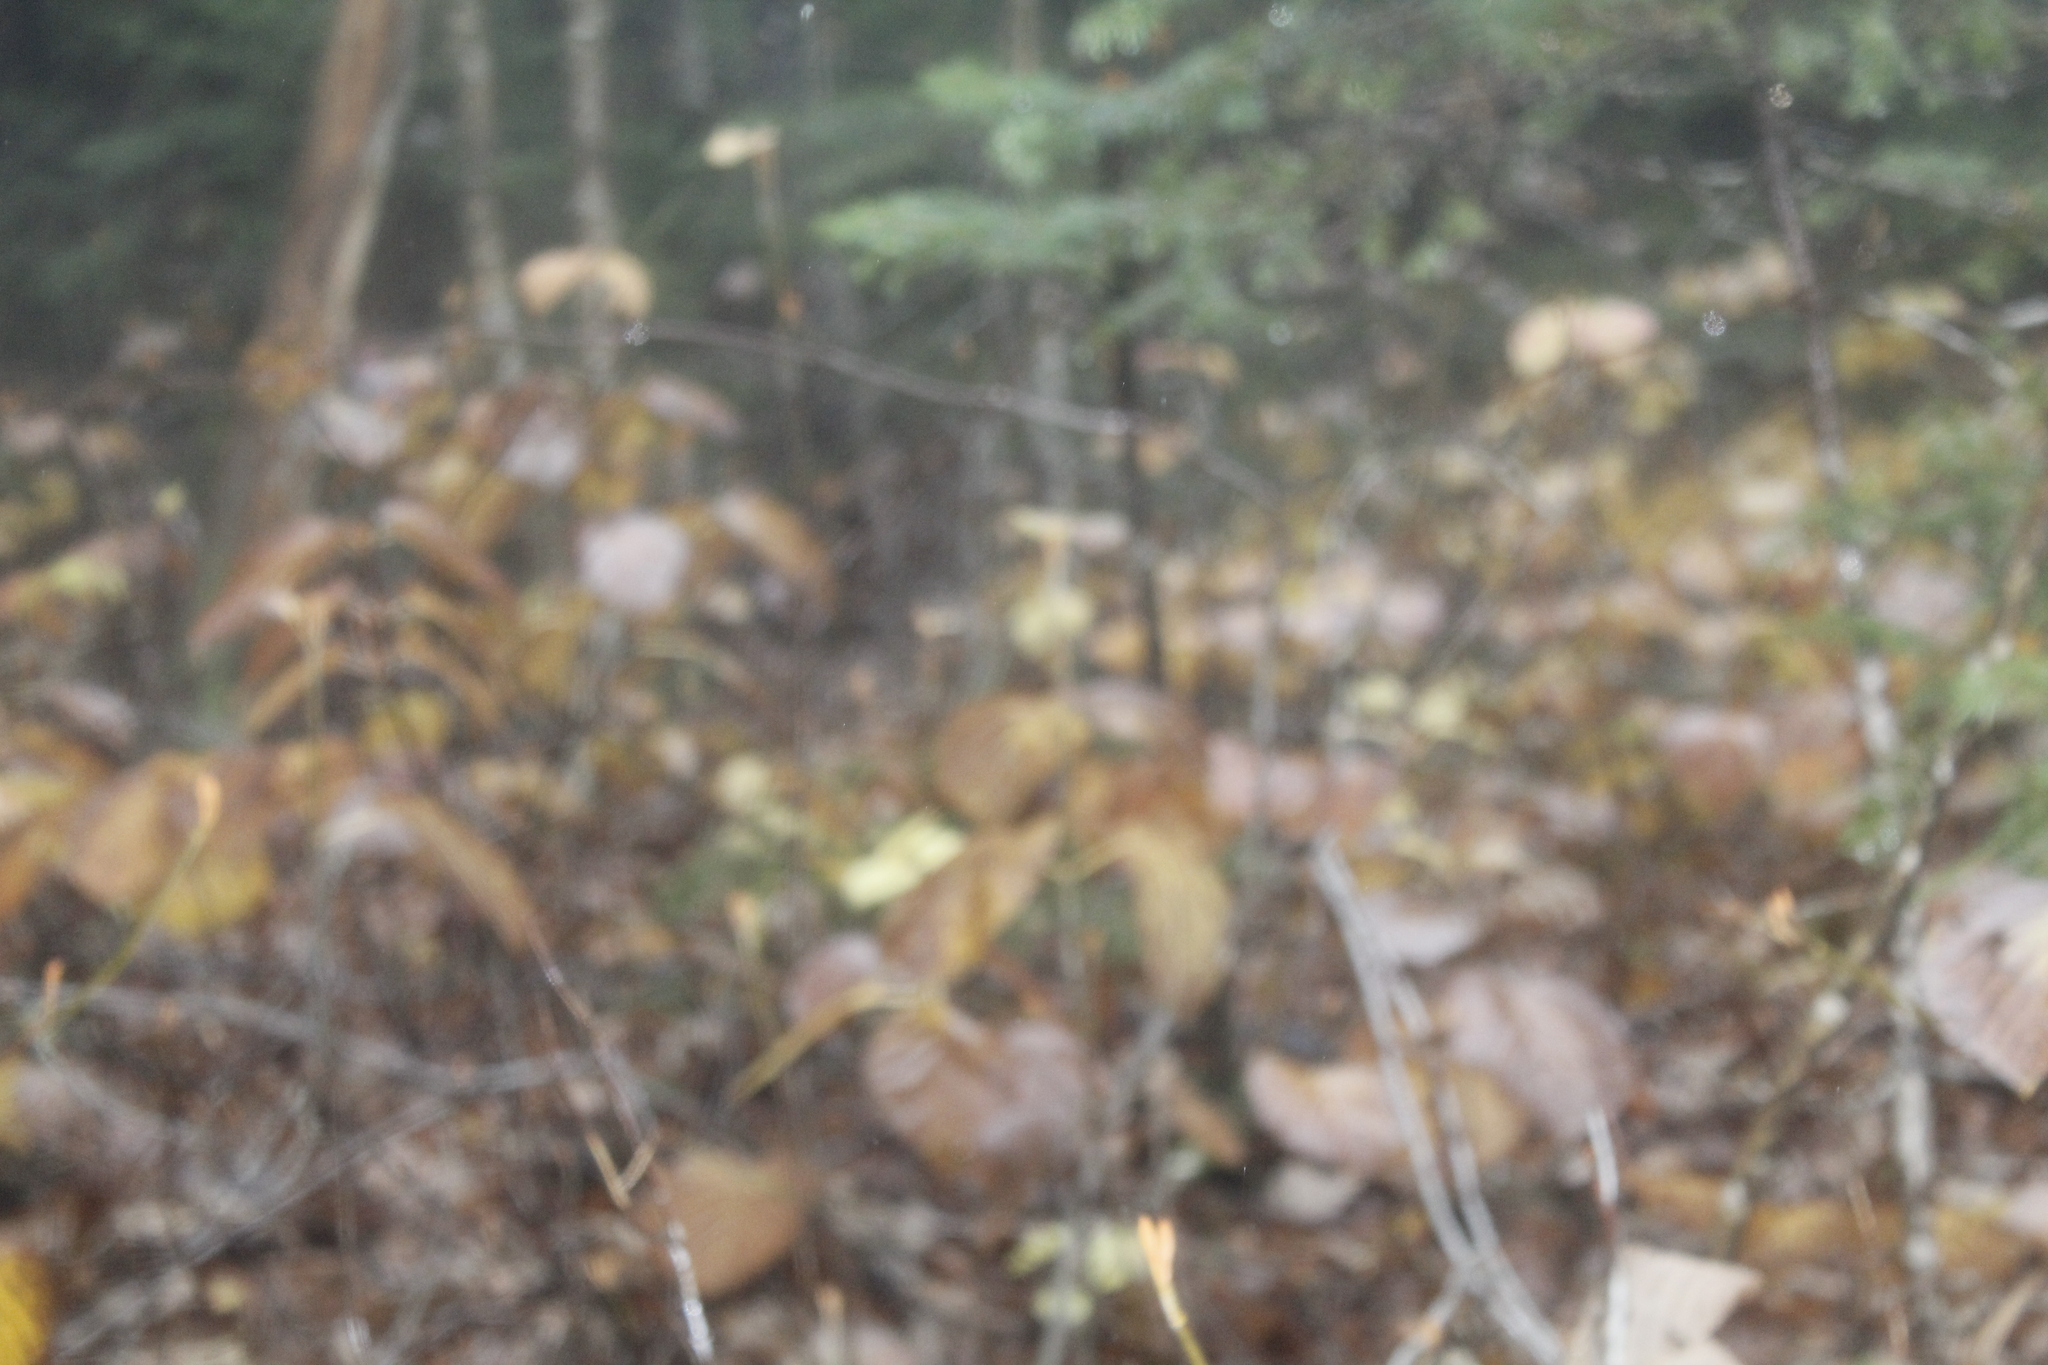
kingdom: Plantae
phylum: Tracheophyta
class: Magnoliopsida
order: Dipsacales
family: Viburnaceae
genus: Viburnum
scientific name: Viburnum lantanoides
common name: Hobblebush
